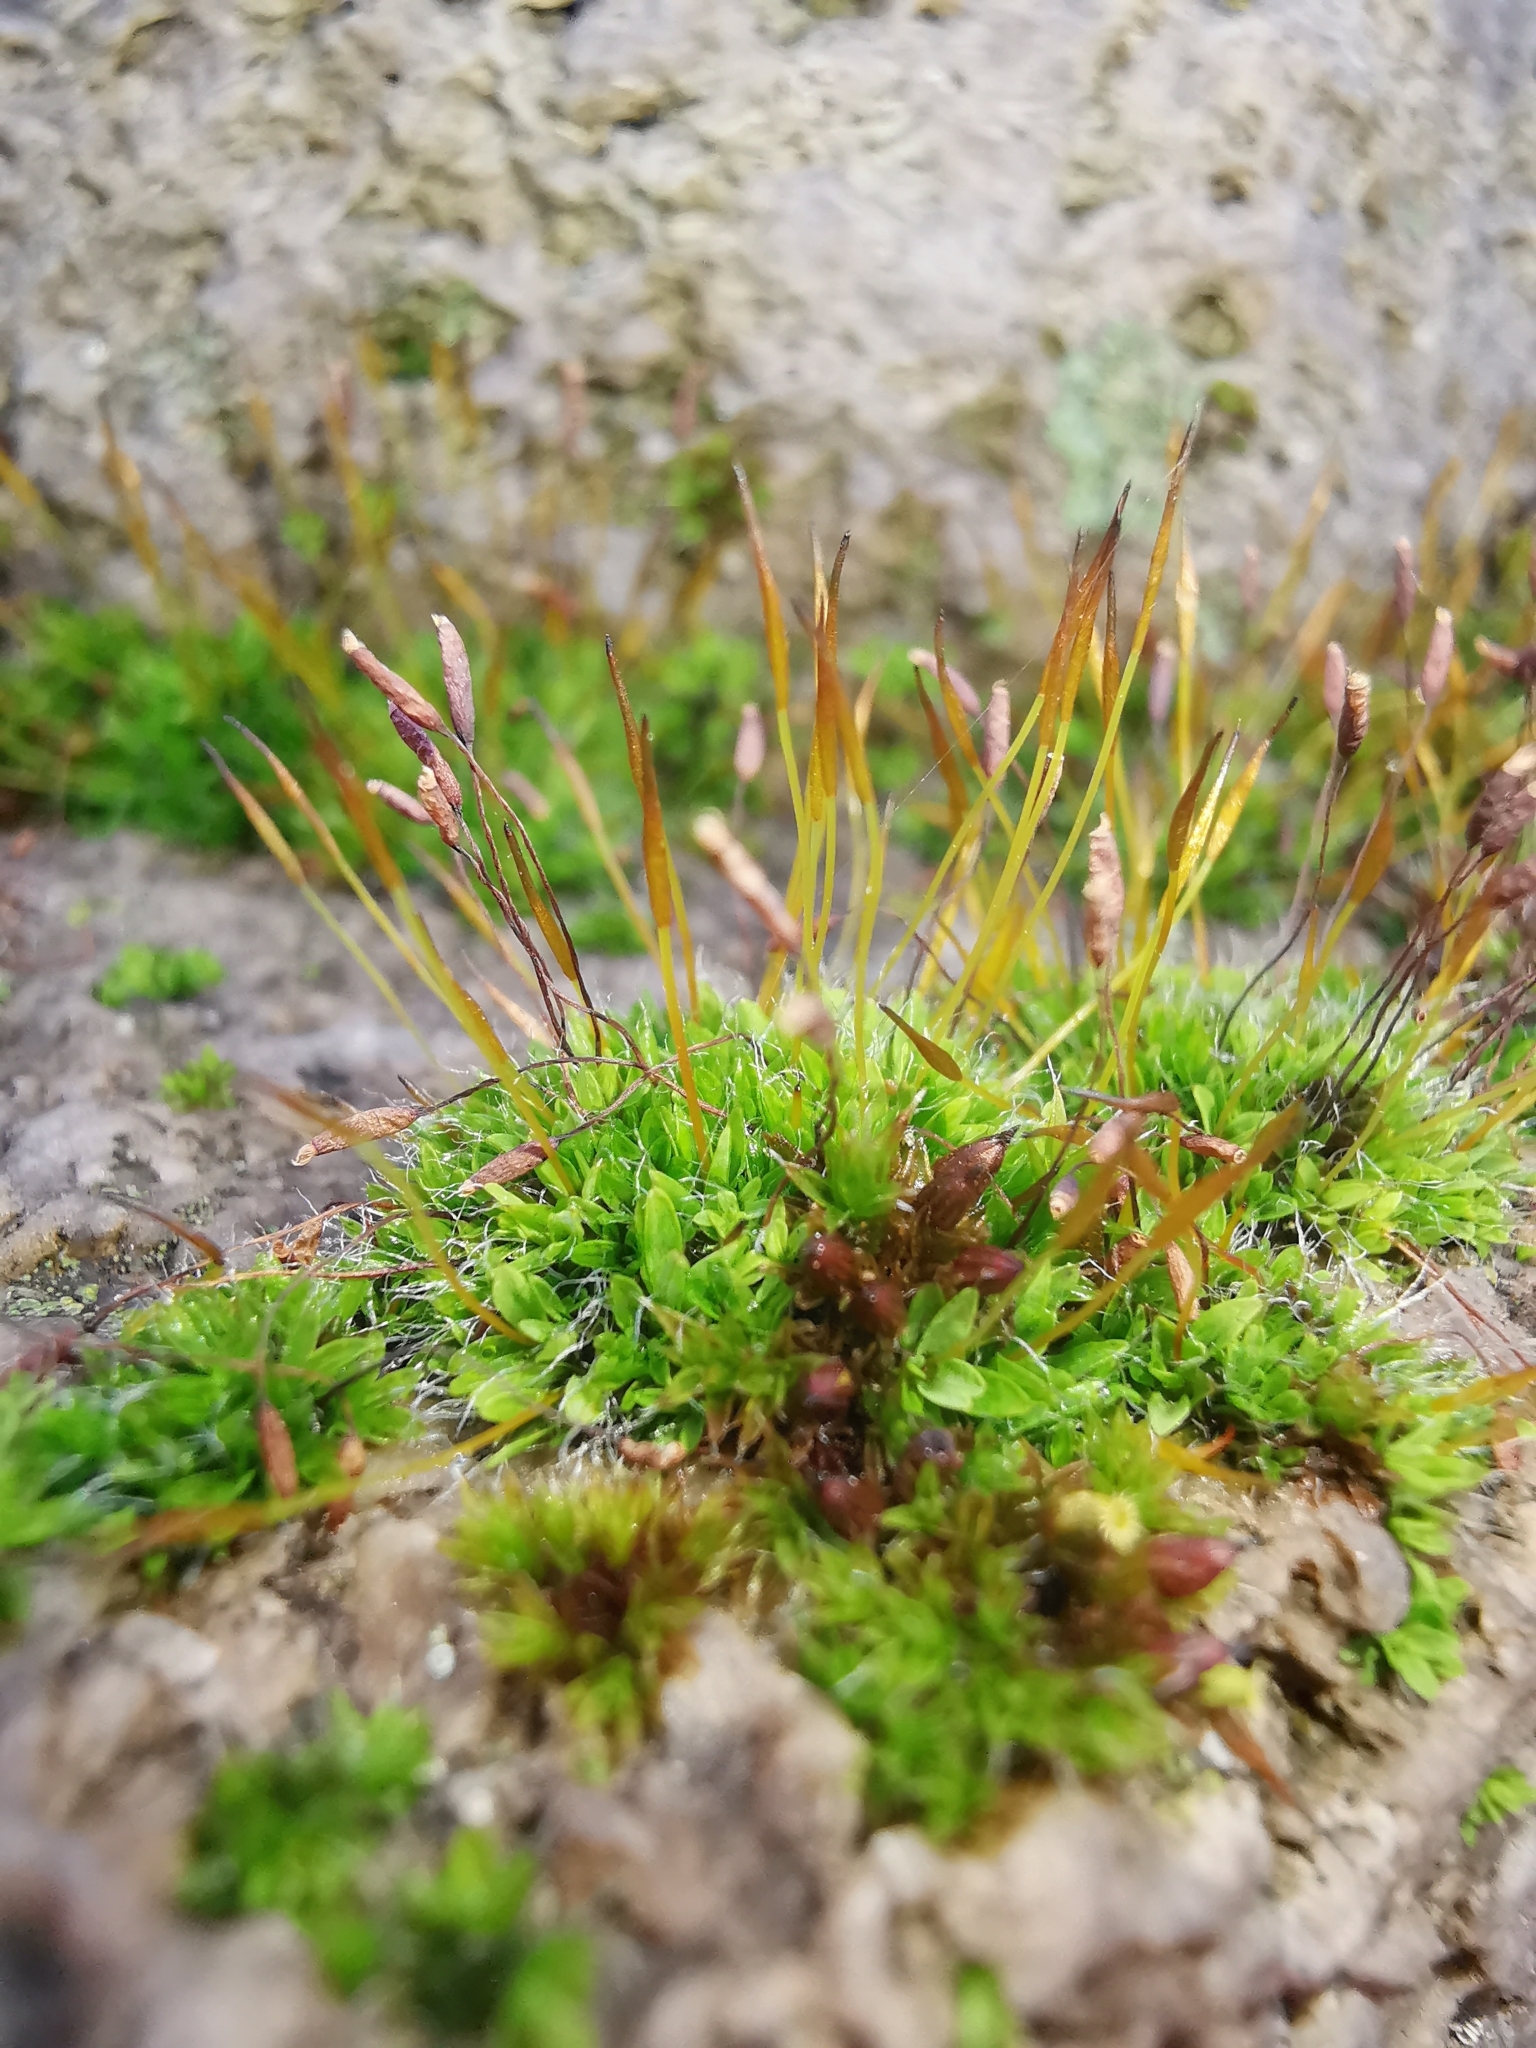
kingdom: Plantae
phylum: Bryophyta
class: Bryopsida
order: Pottiales
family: Pottiaceae
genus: Tortula
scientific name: Tortula muralis
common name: Wall screw-moss
